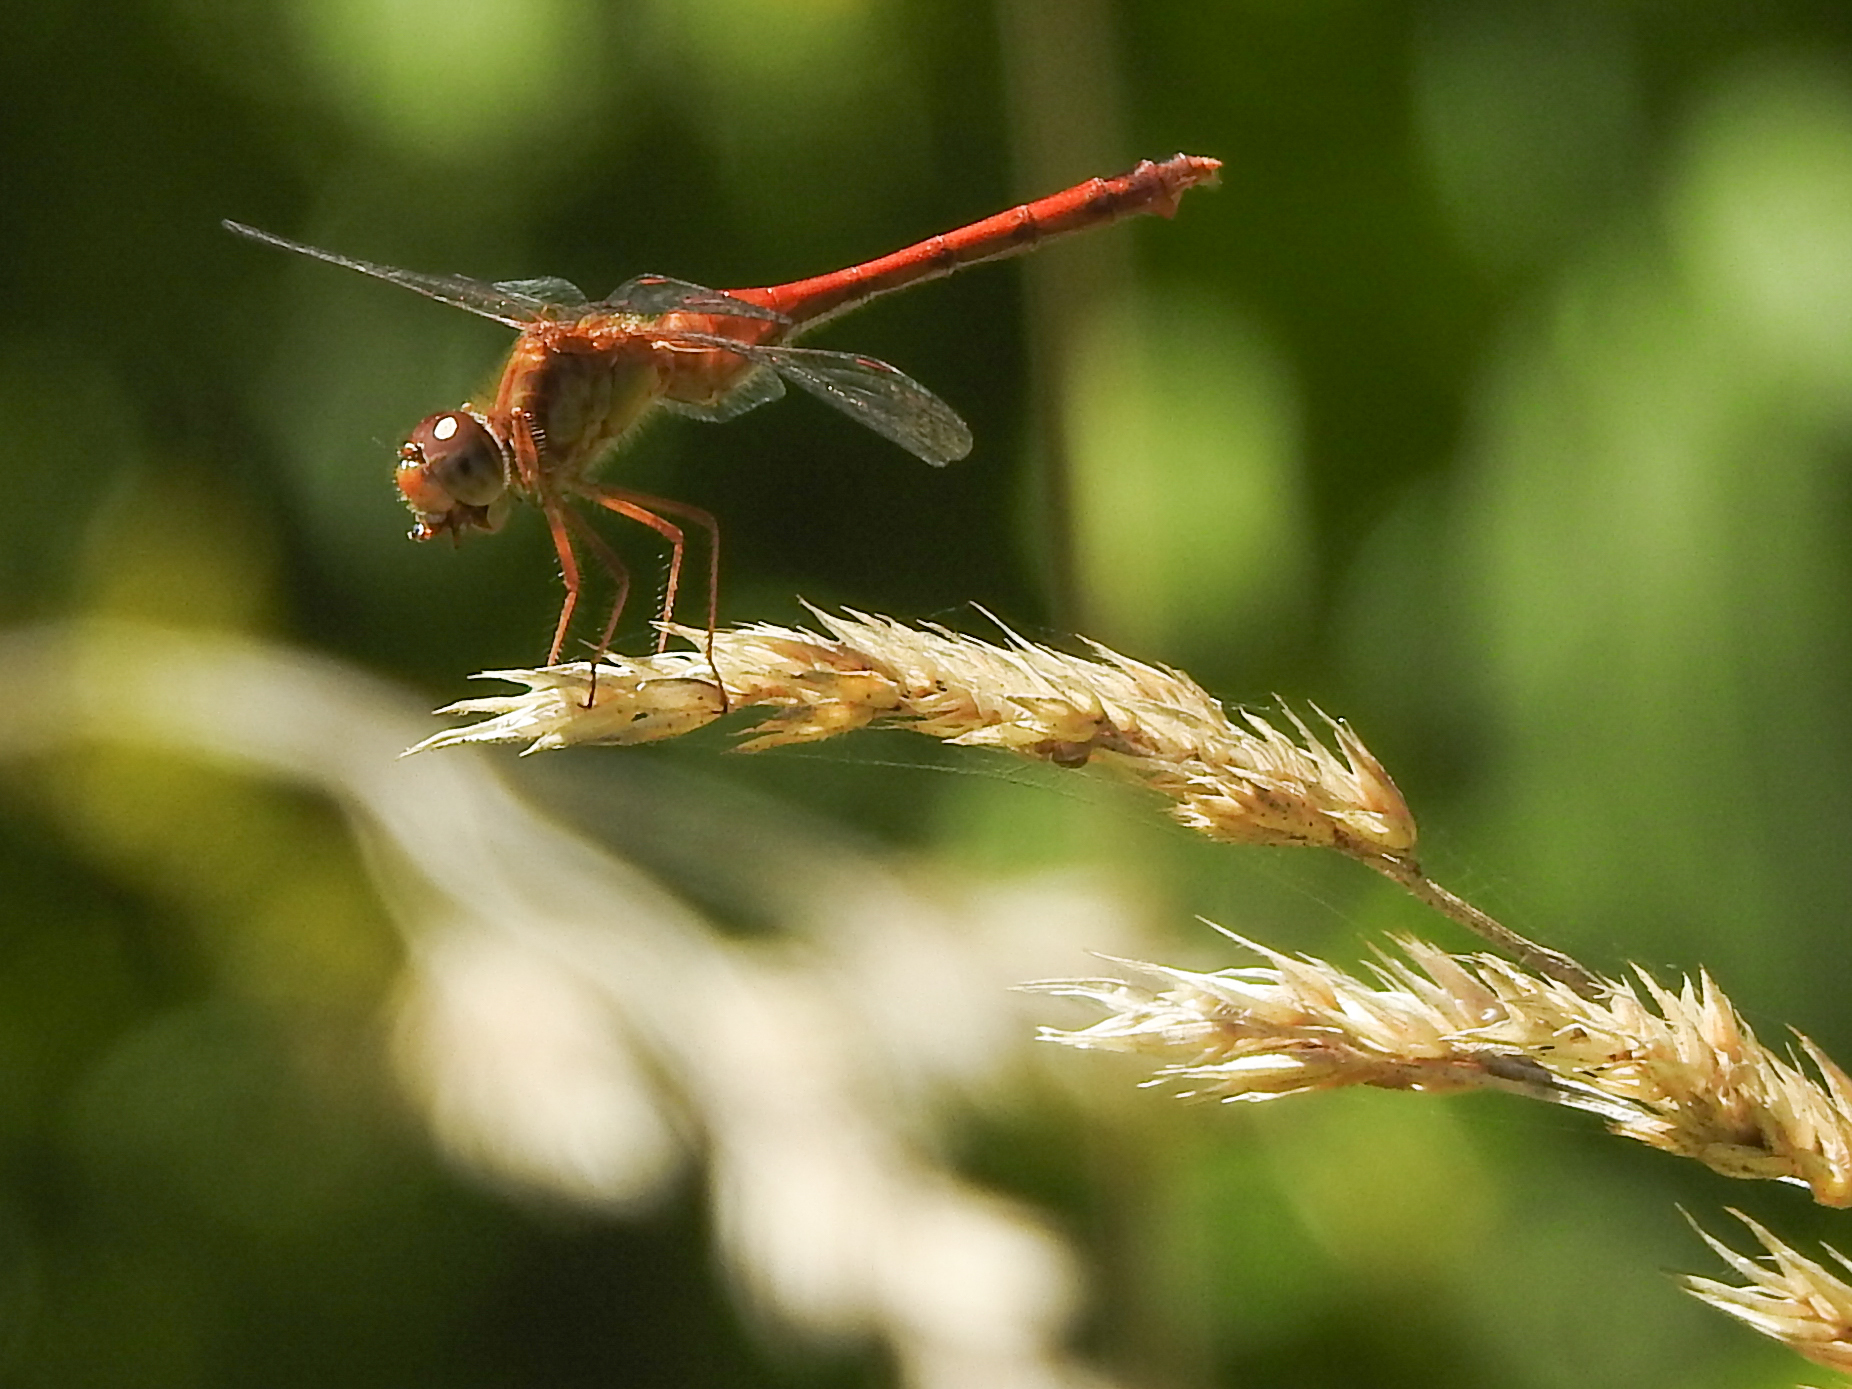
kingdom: Animalia
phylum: Arthropoda
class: Insecta
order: Odonata
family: Libellulidae
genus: Sympetrum
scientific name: Sympetrum vicinum
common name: Autumn meadowhawk
